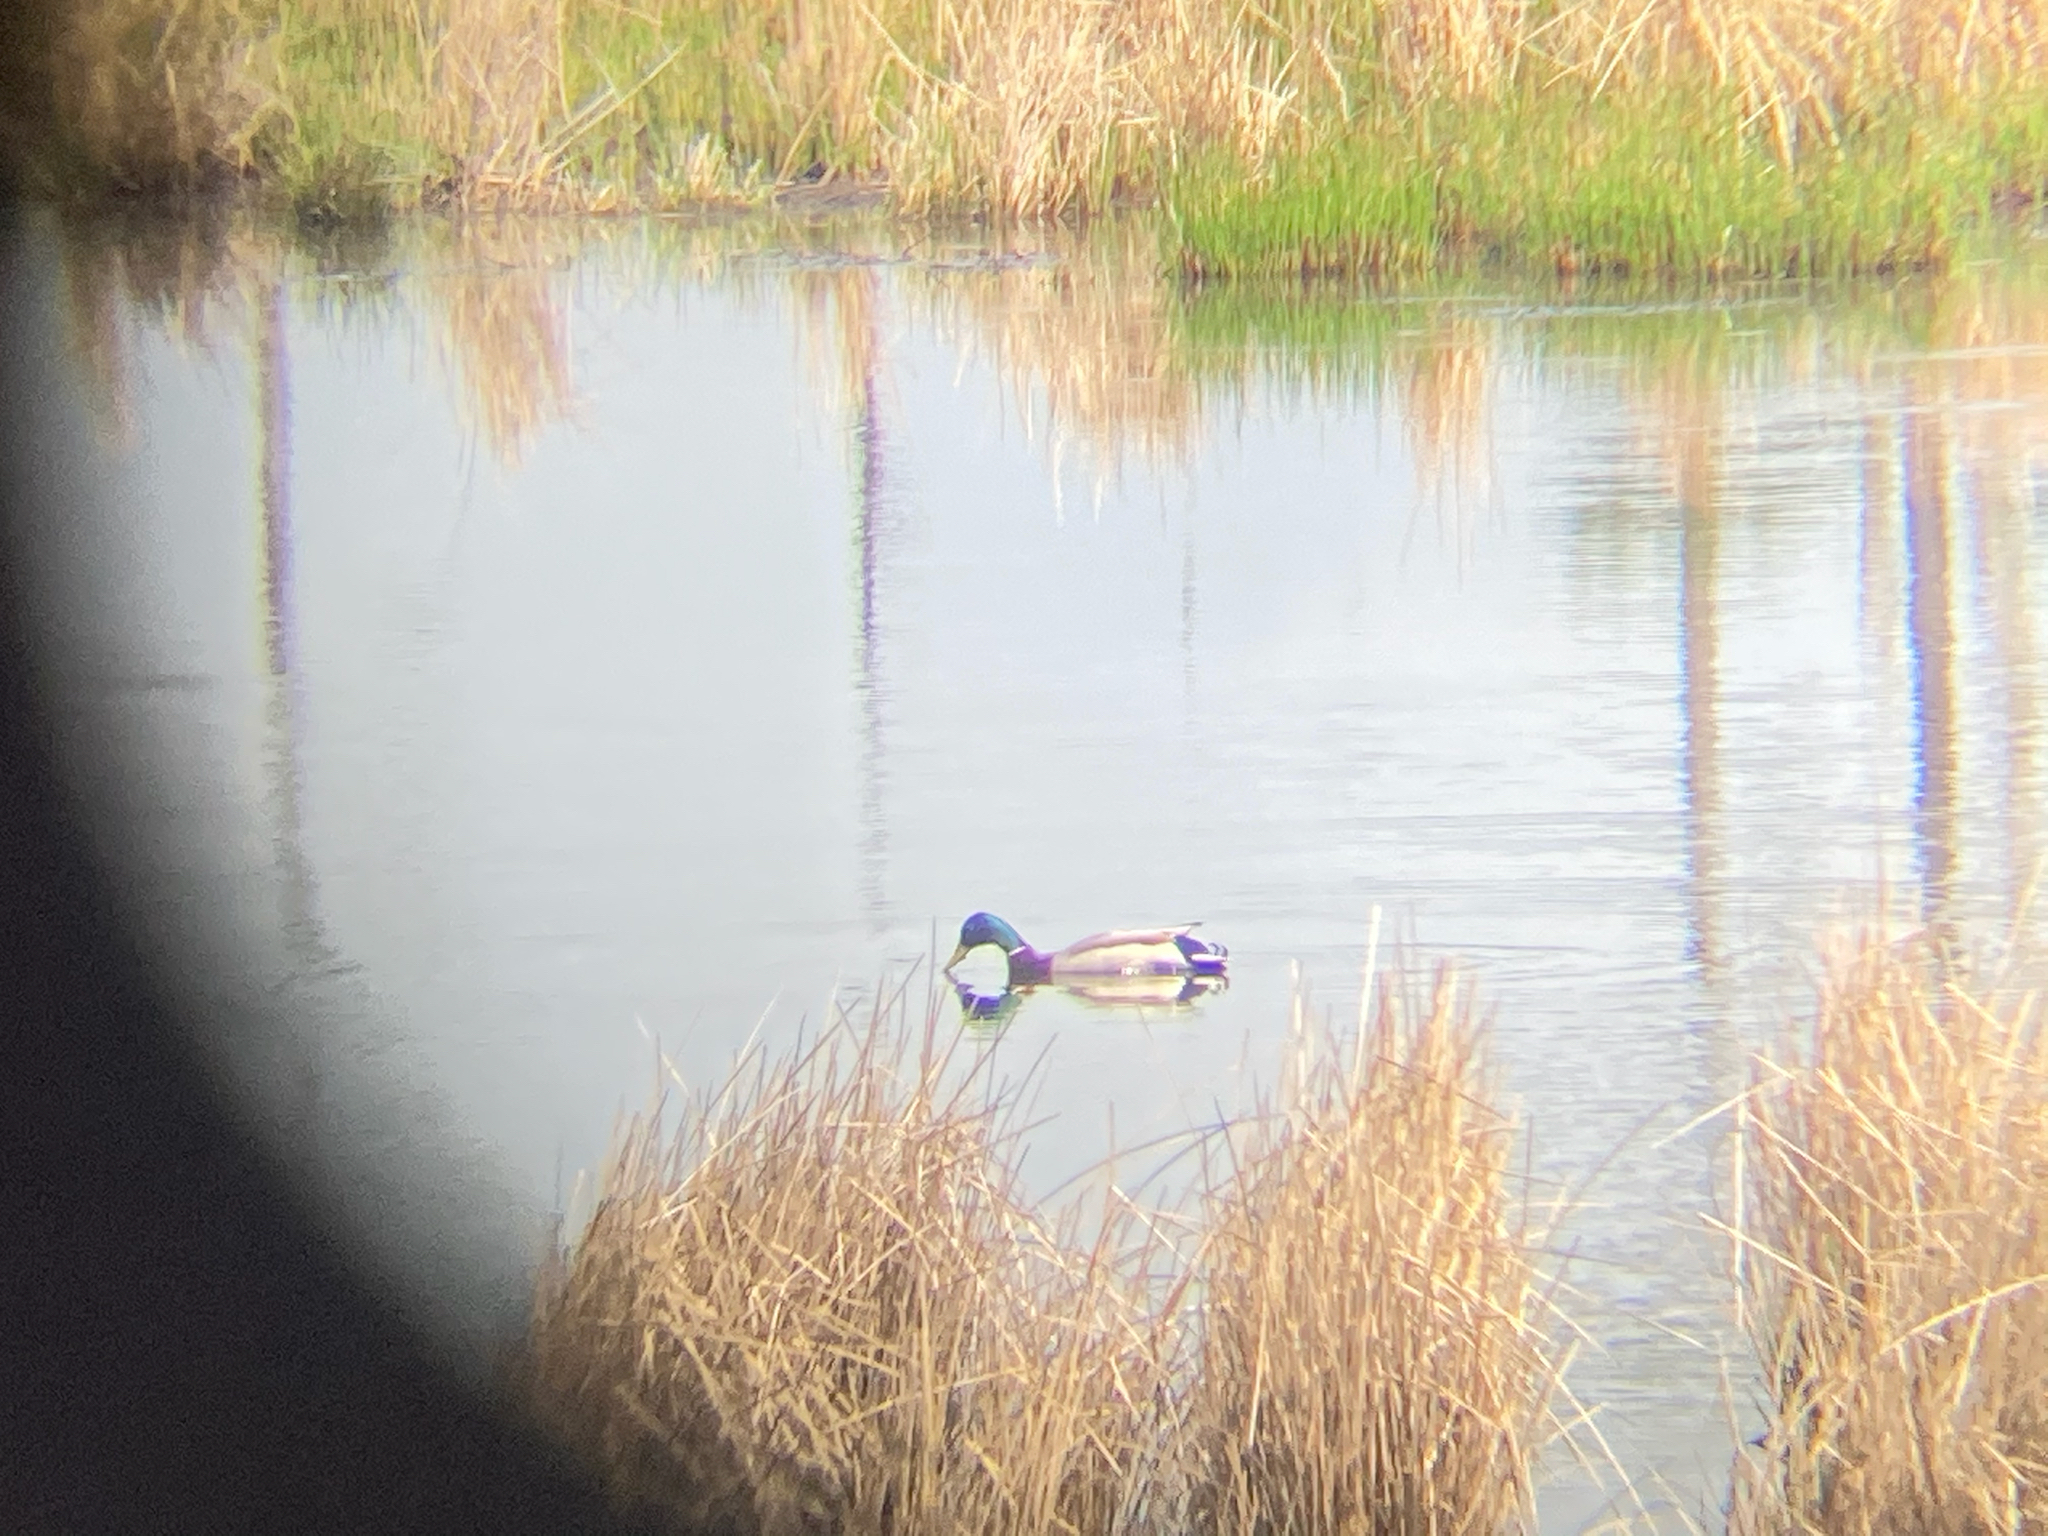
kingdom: Animalia
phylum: Chordata
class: Aves
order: Anseriformes
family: Anatidae
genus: Anas
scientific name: Anas platyrhynchos
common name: Mallard
